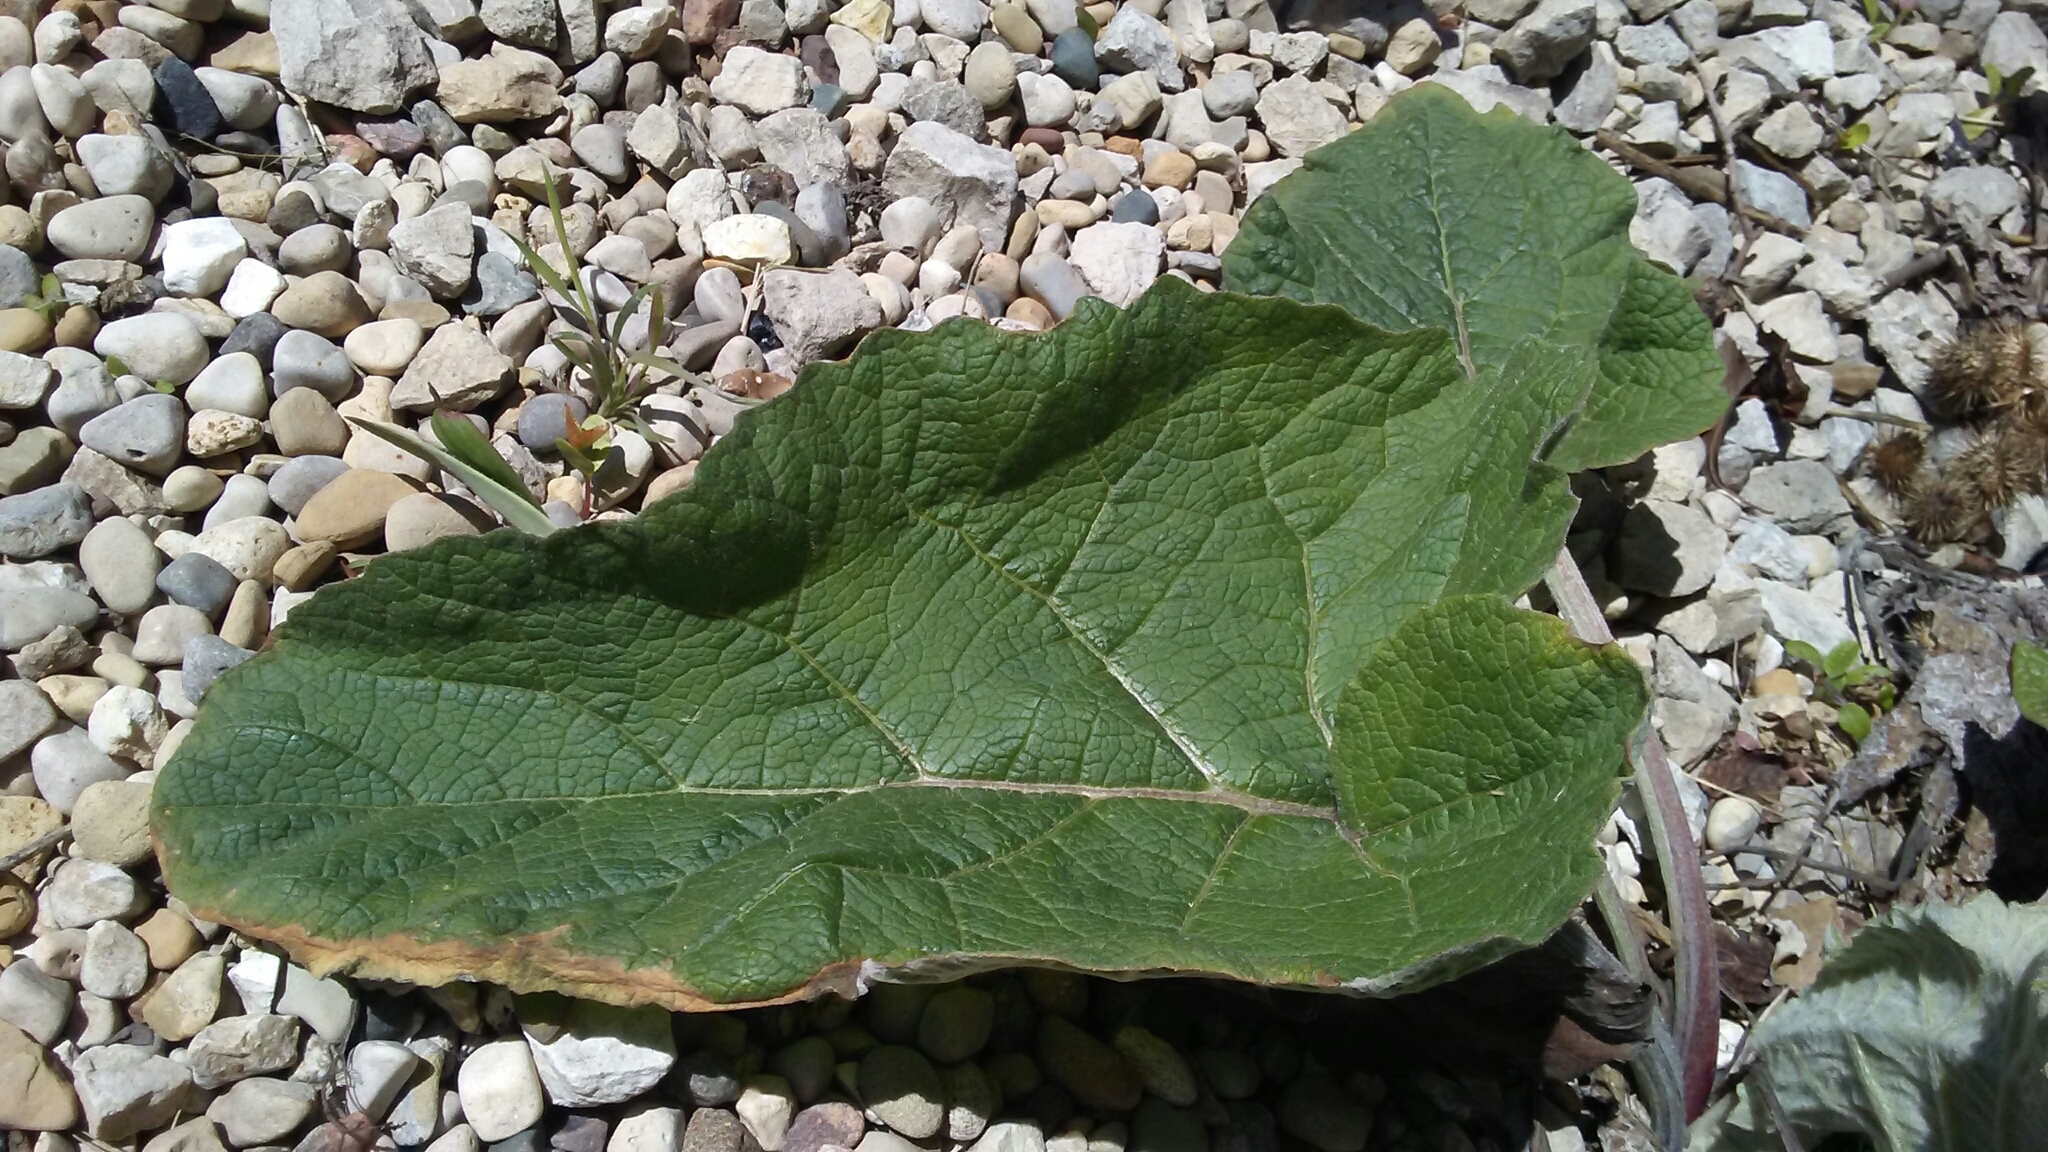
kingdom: Plantae
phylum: Tracheophyta
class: Magnoliopsida
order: Asterales
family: Asteraceae
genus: Arctium
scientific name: Arctium minus
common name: Lesser burdock
